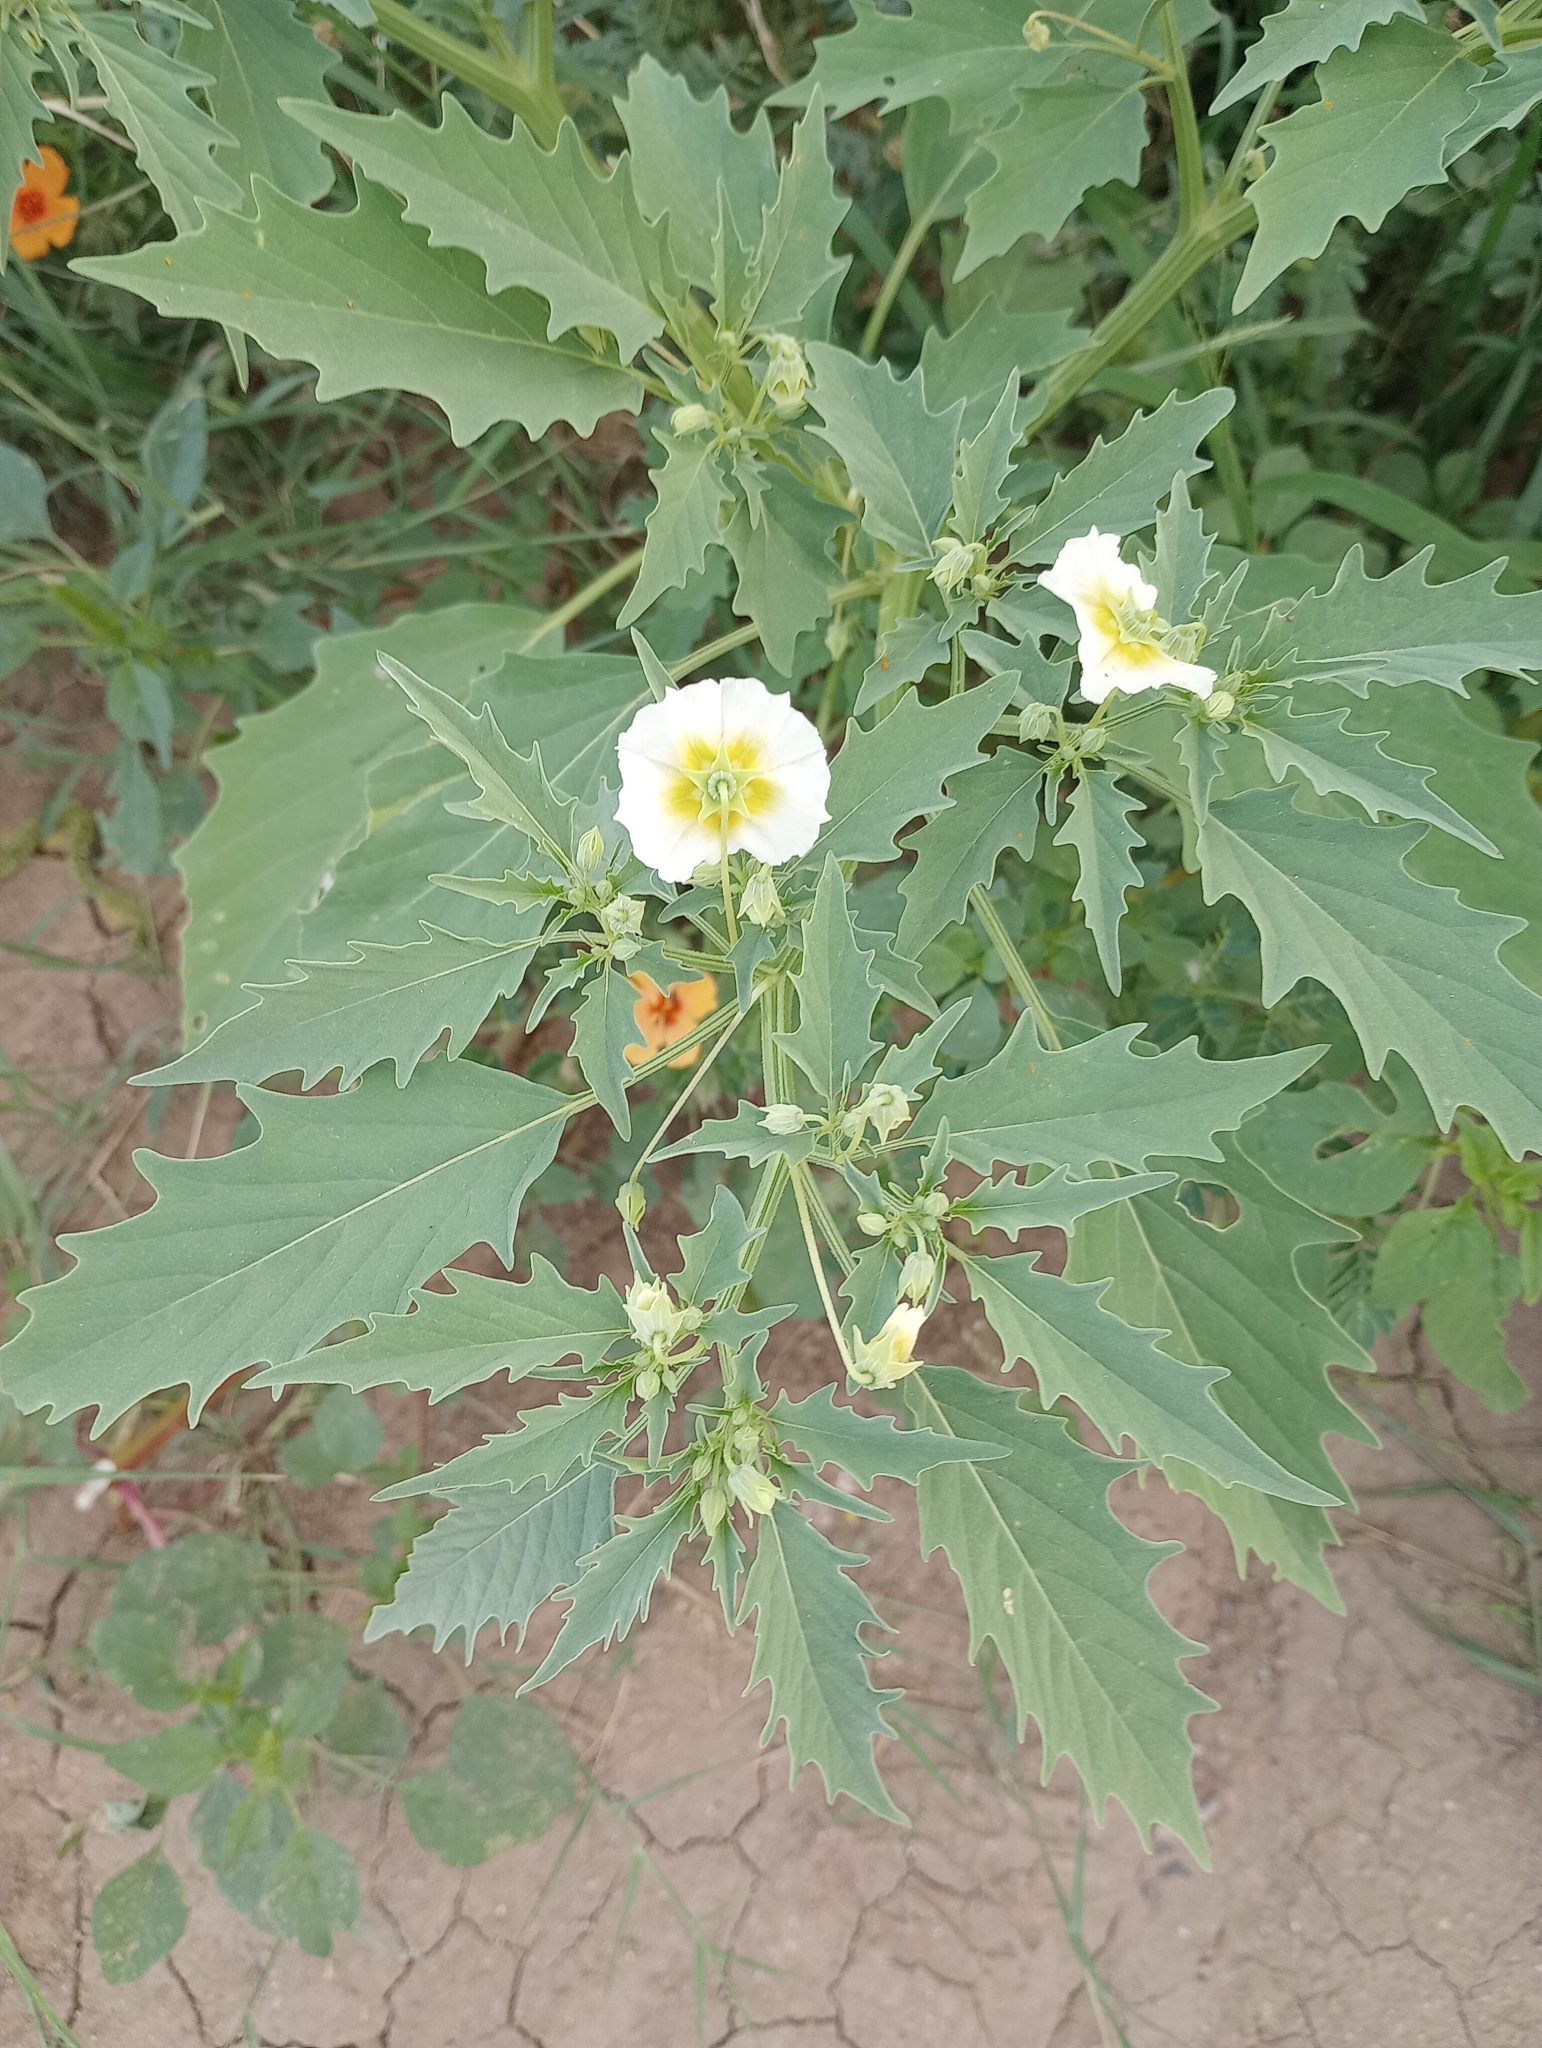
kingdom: Plantae
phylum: Tracheophyta
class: Magnoliopsida
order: Solanales
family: Solanaceae
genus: Physalis
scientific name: Physalis acutifolia
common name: Wright's ground-cherry
